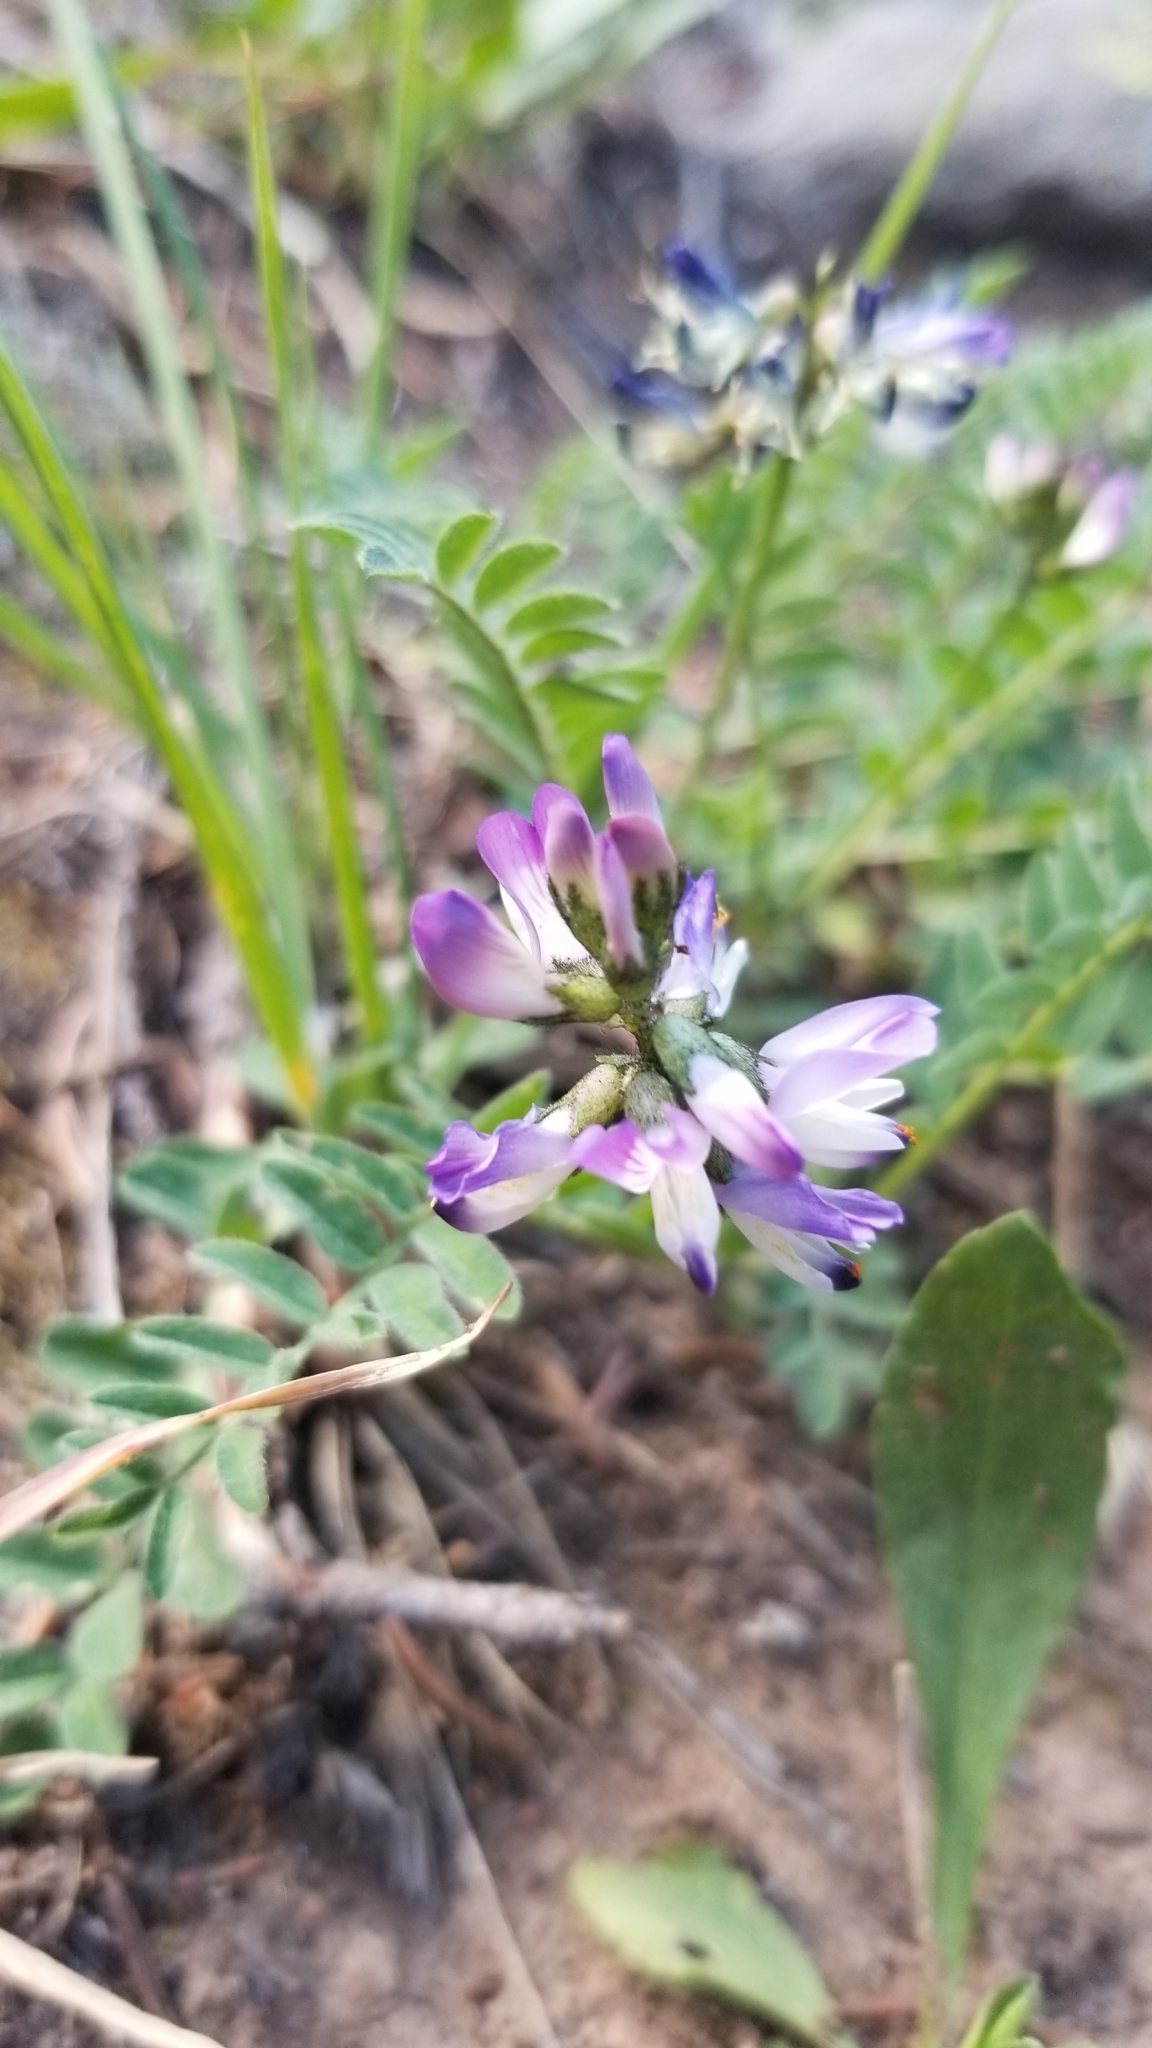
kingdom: Plantae
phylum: Tracheophyta
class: Magnoliopsida
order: Fabales
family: Fabaceae
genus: Astragalus
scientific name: Astragalus alpinus
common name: Alpine milk-vetch
